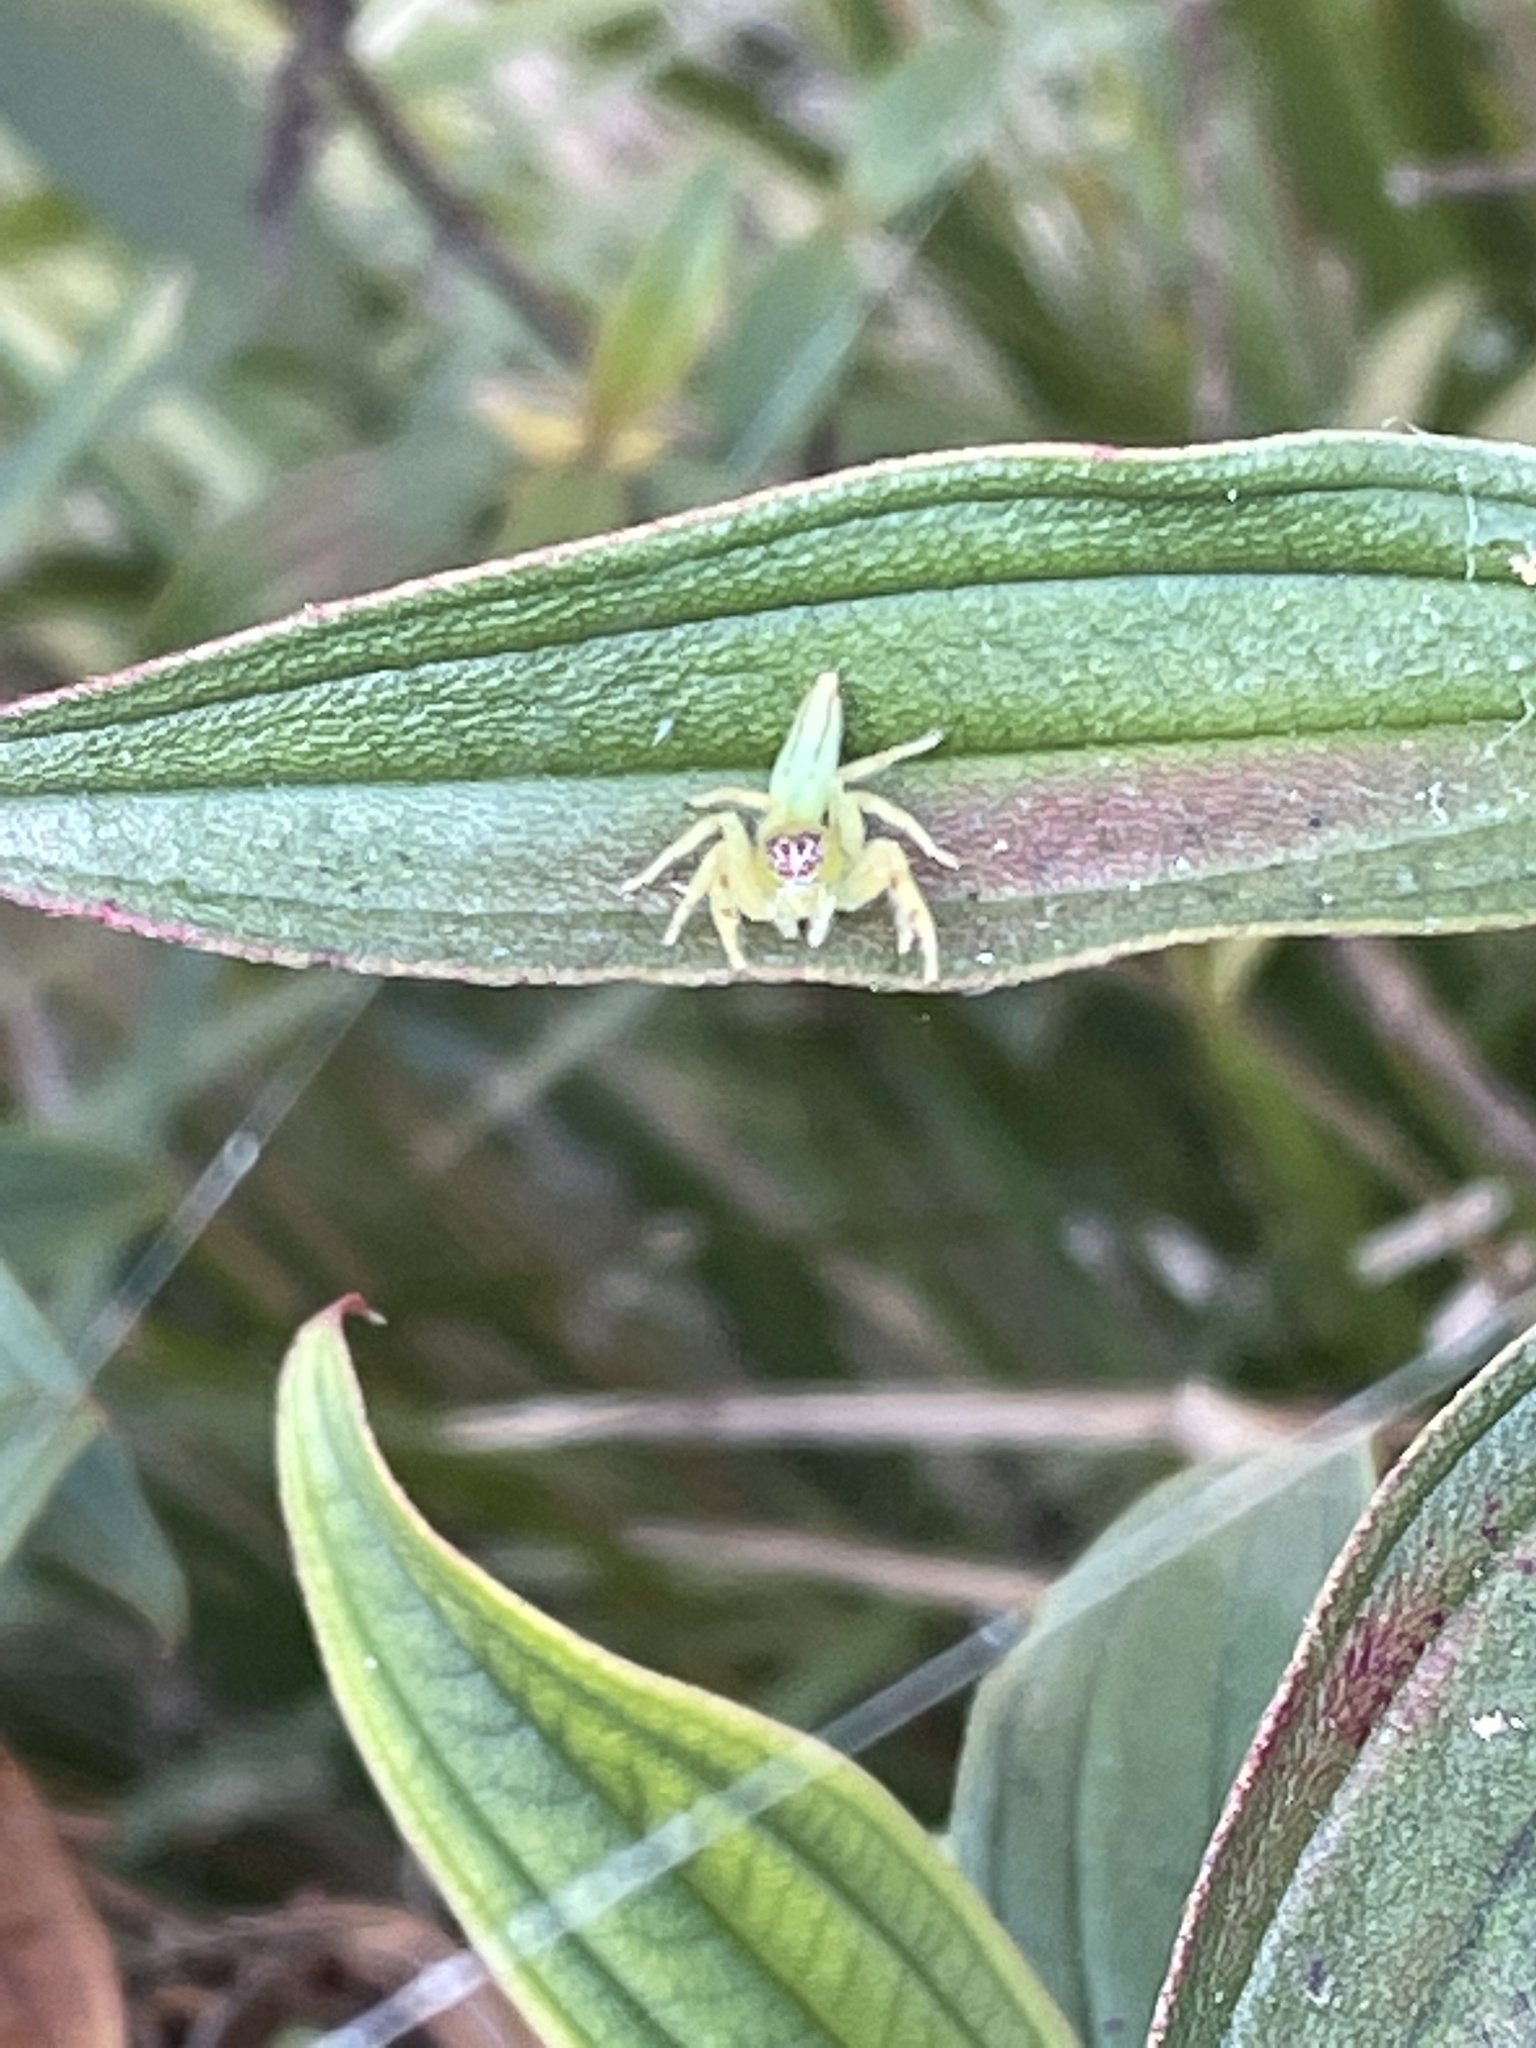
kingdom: Animalia
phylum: Arthropoda
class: Arachnida
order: Araneae
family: Salticidae
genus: Mopsus
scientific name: Mopsus mormon
